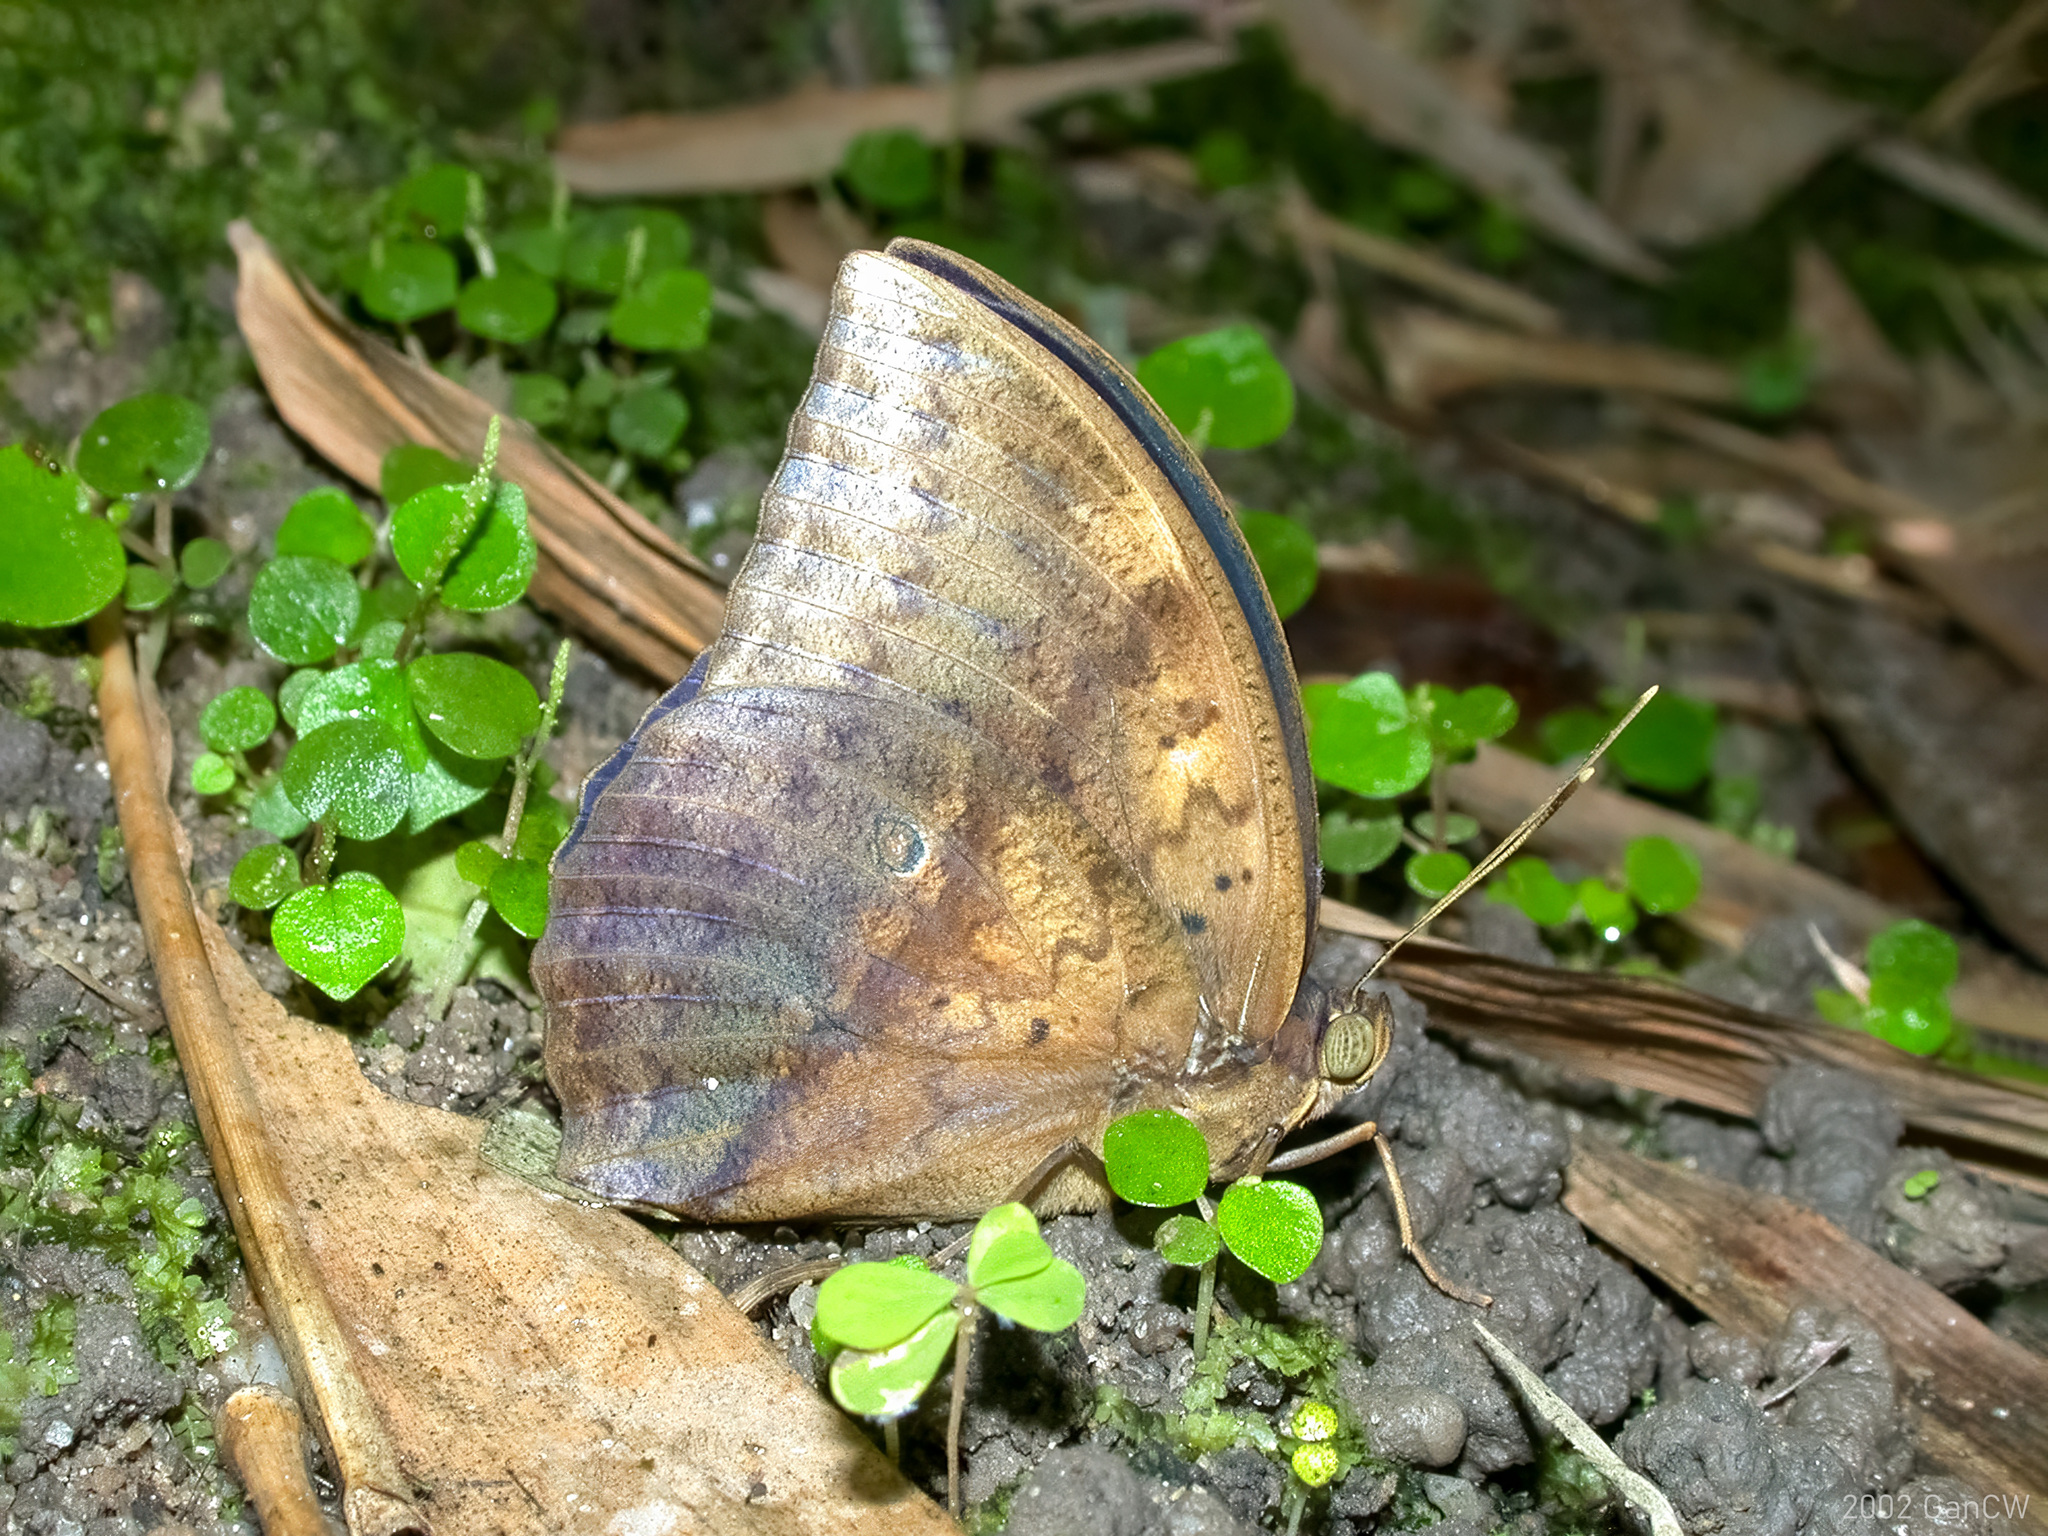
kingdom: Animalia
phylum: Arthropoda
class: Insecta
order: Lepidoptera
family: Nymphalidae
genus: Discophora
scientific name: Discophora timora
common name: Great duffer
